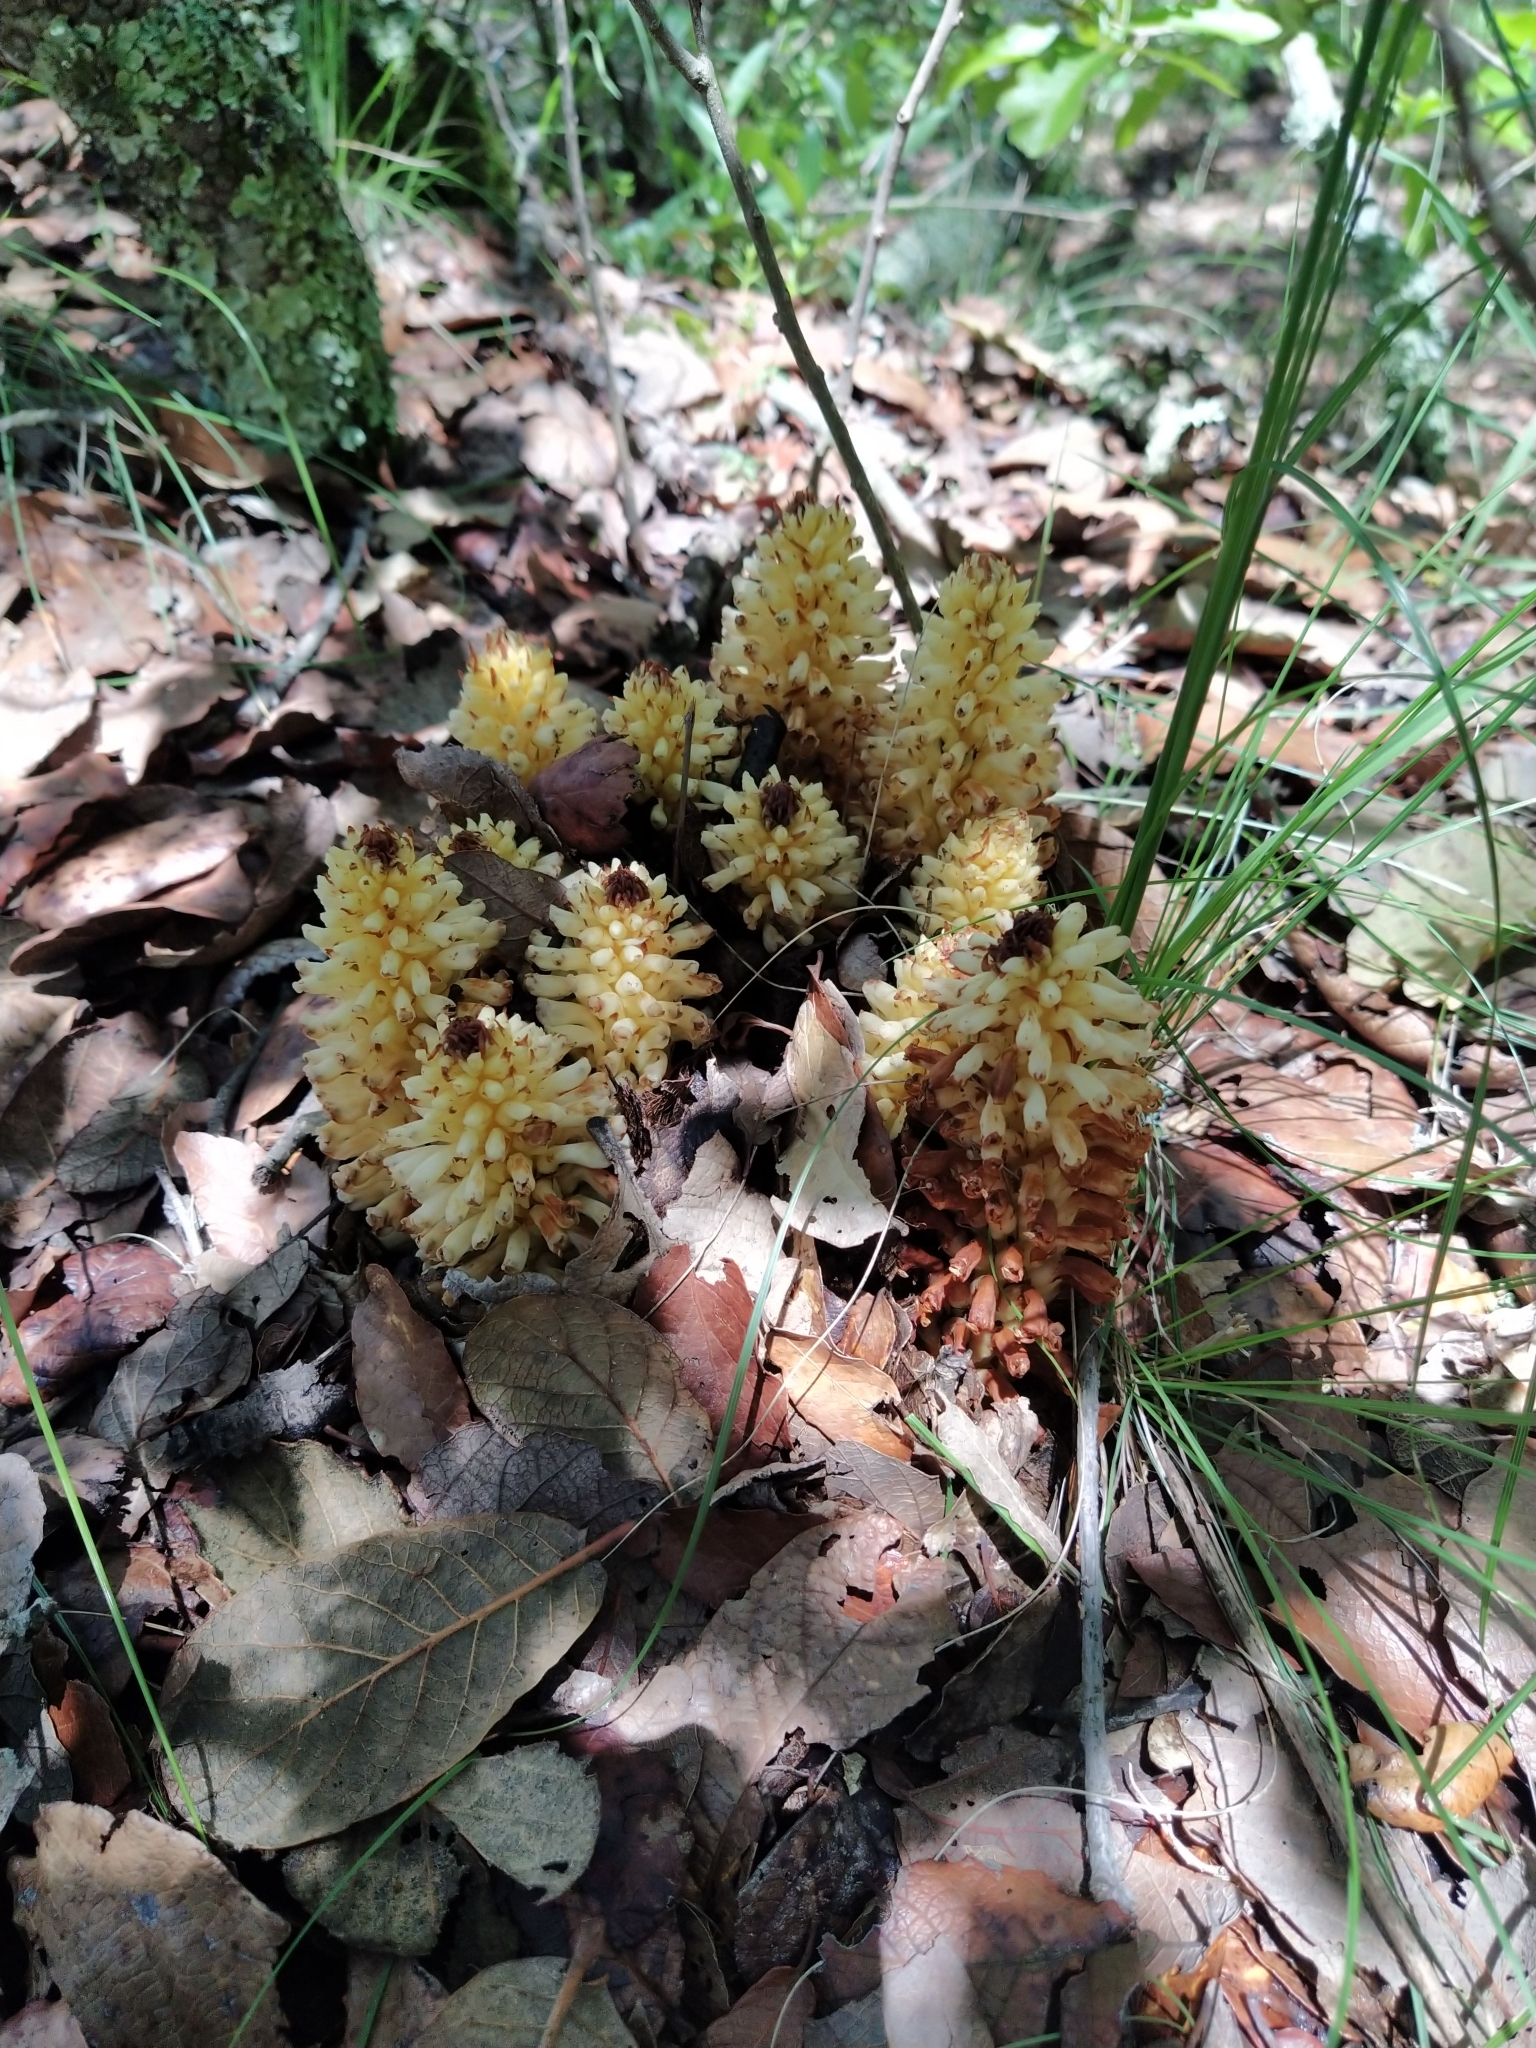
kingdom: Plantae
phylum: Tracheophyta
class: Magnoliopsida
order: Lamiales
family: Orobanchaceae
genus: Conopholis
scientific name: Conopholis alpina
